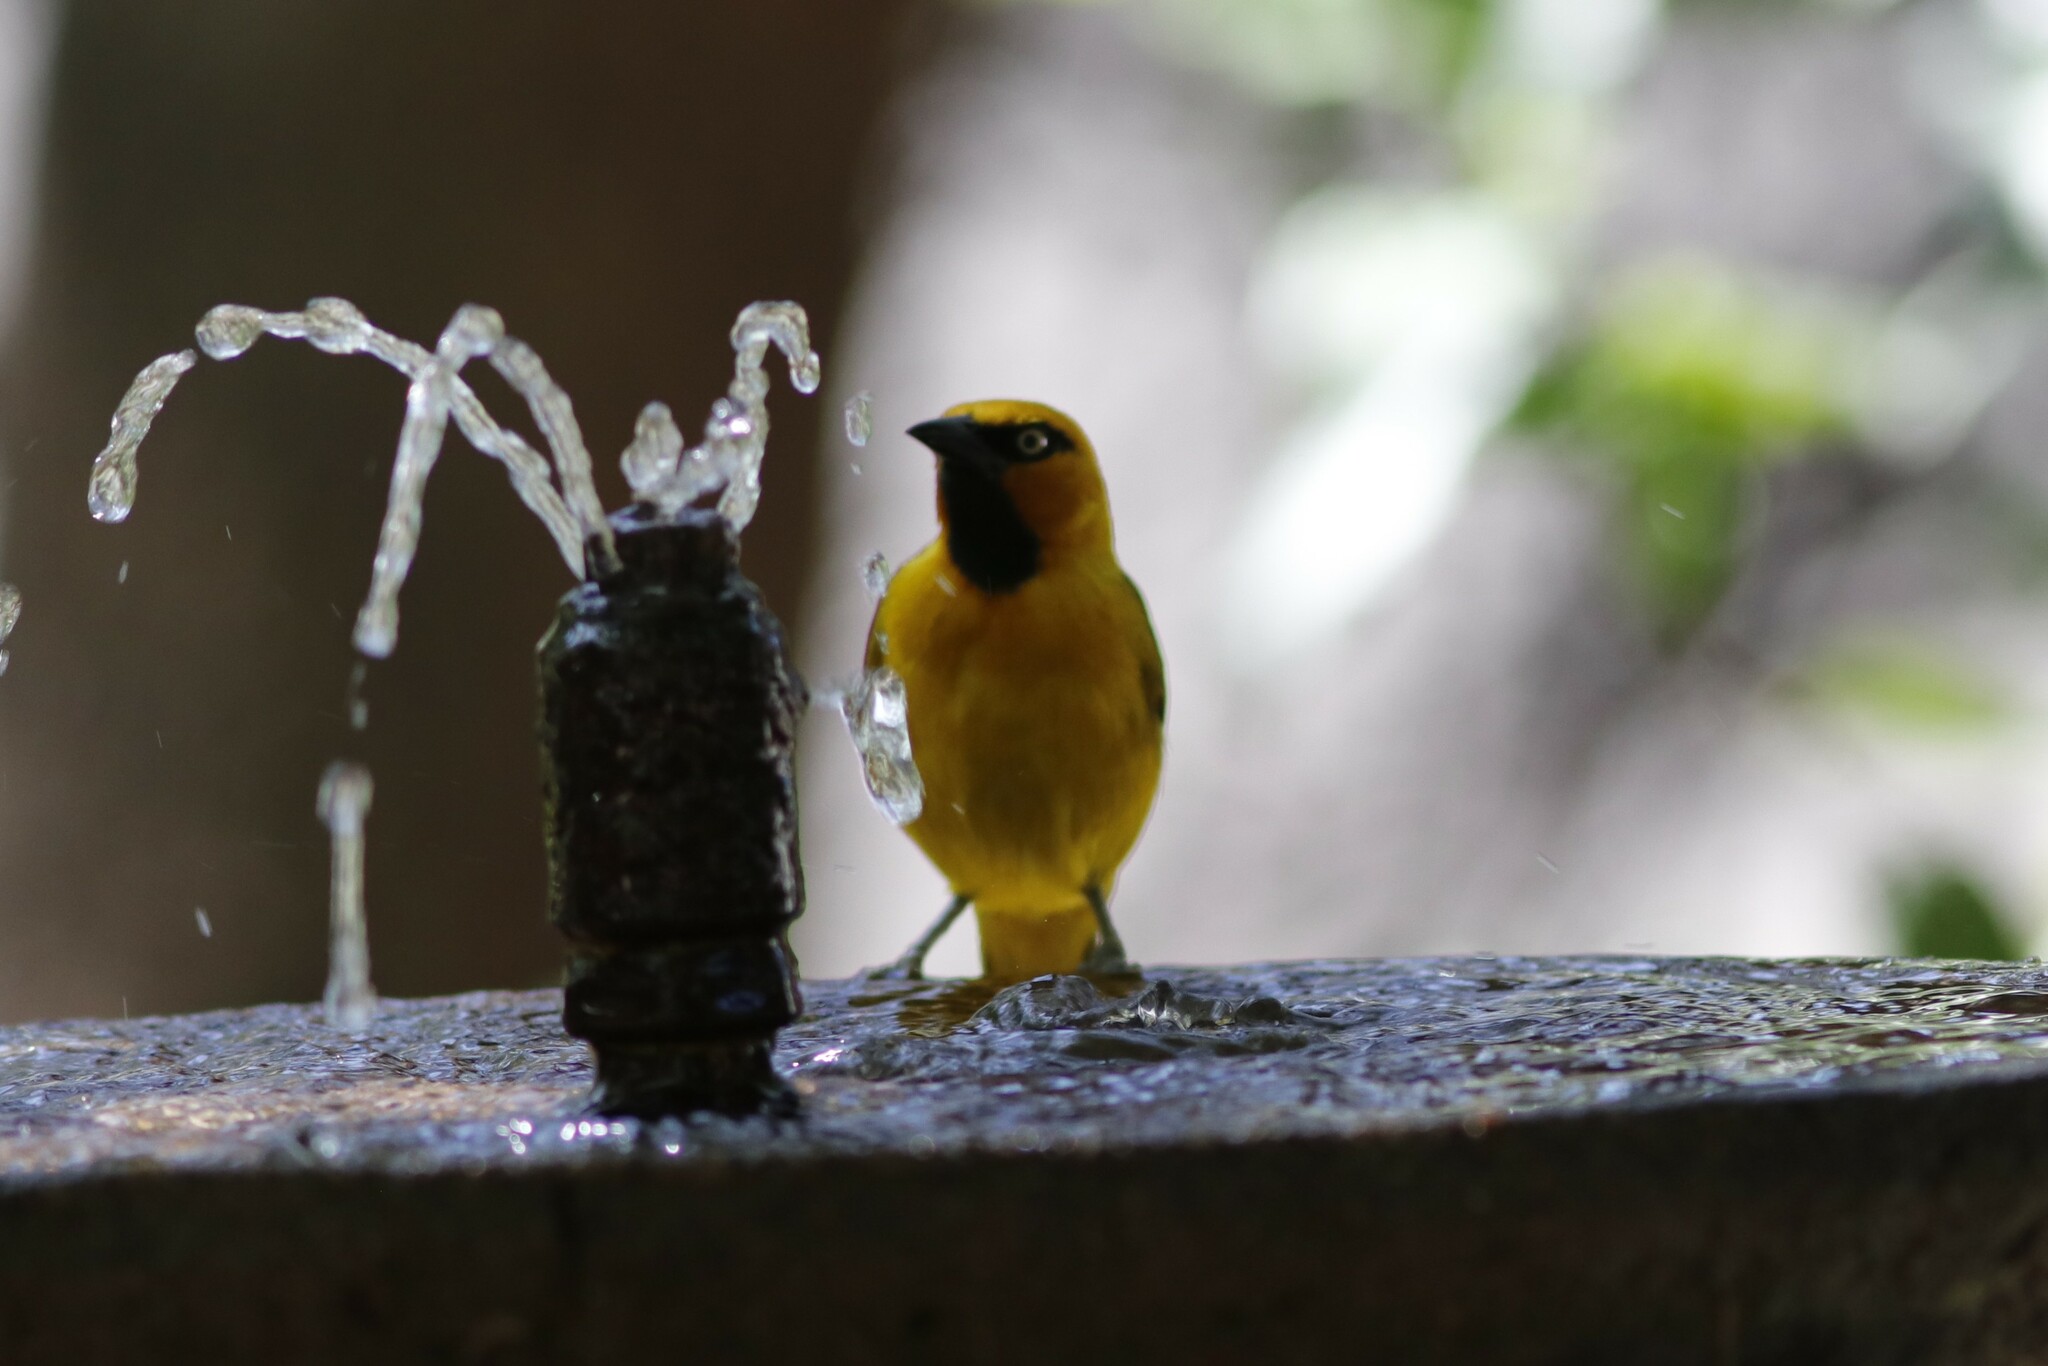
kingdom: Animalia
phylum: Chordata
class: Aves
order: Passeriformes
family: Ploceidae
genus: Ploceus
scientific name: Ploceus ocularis
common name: Spectacled weaver
